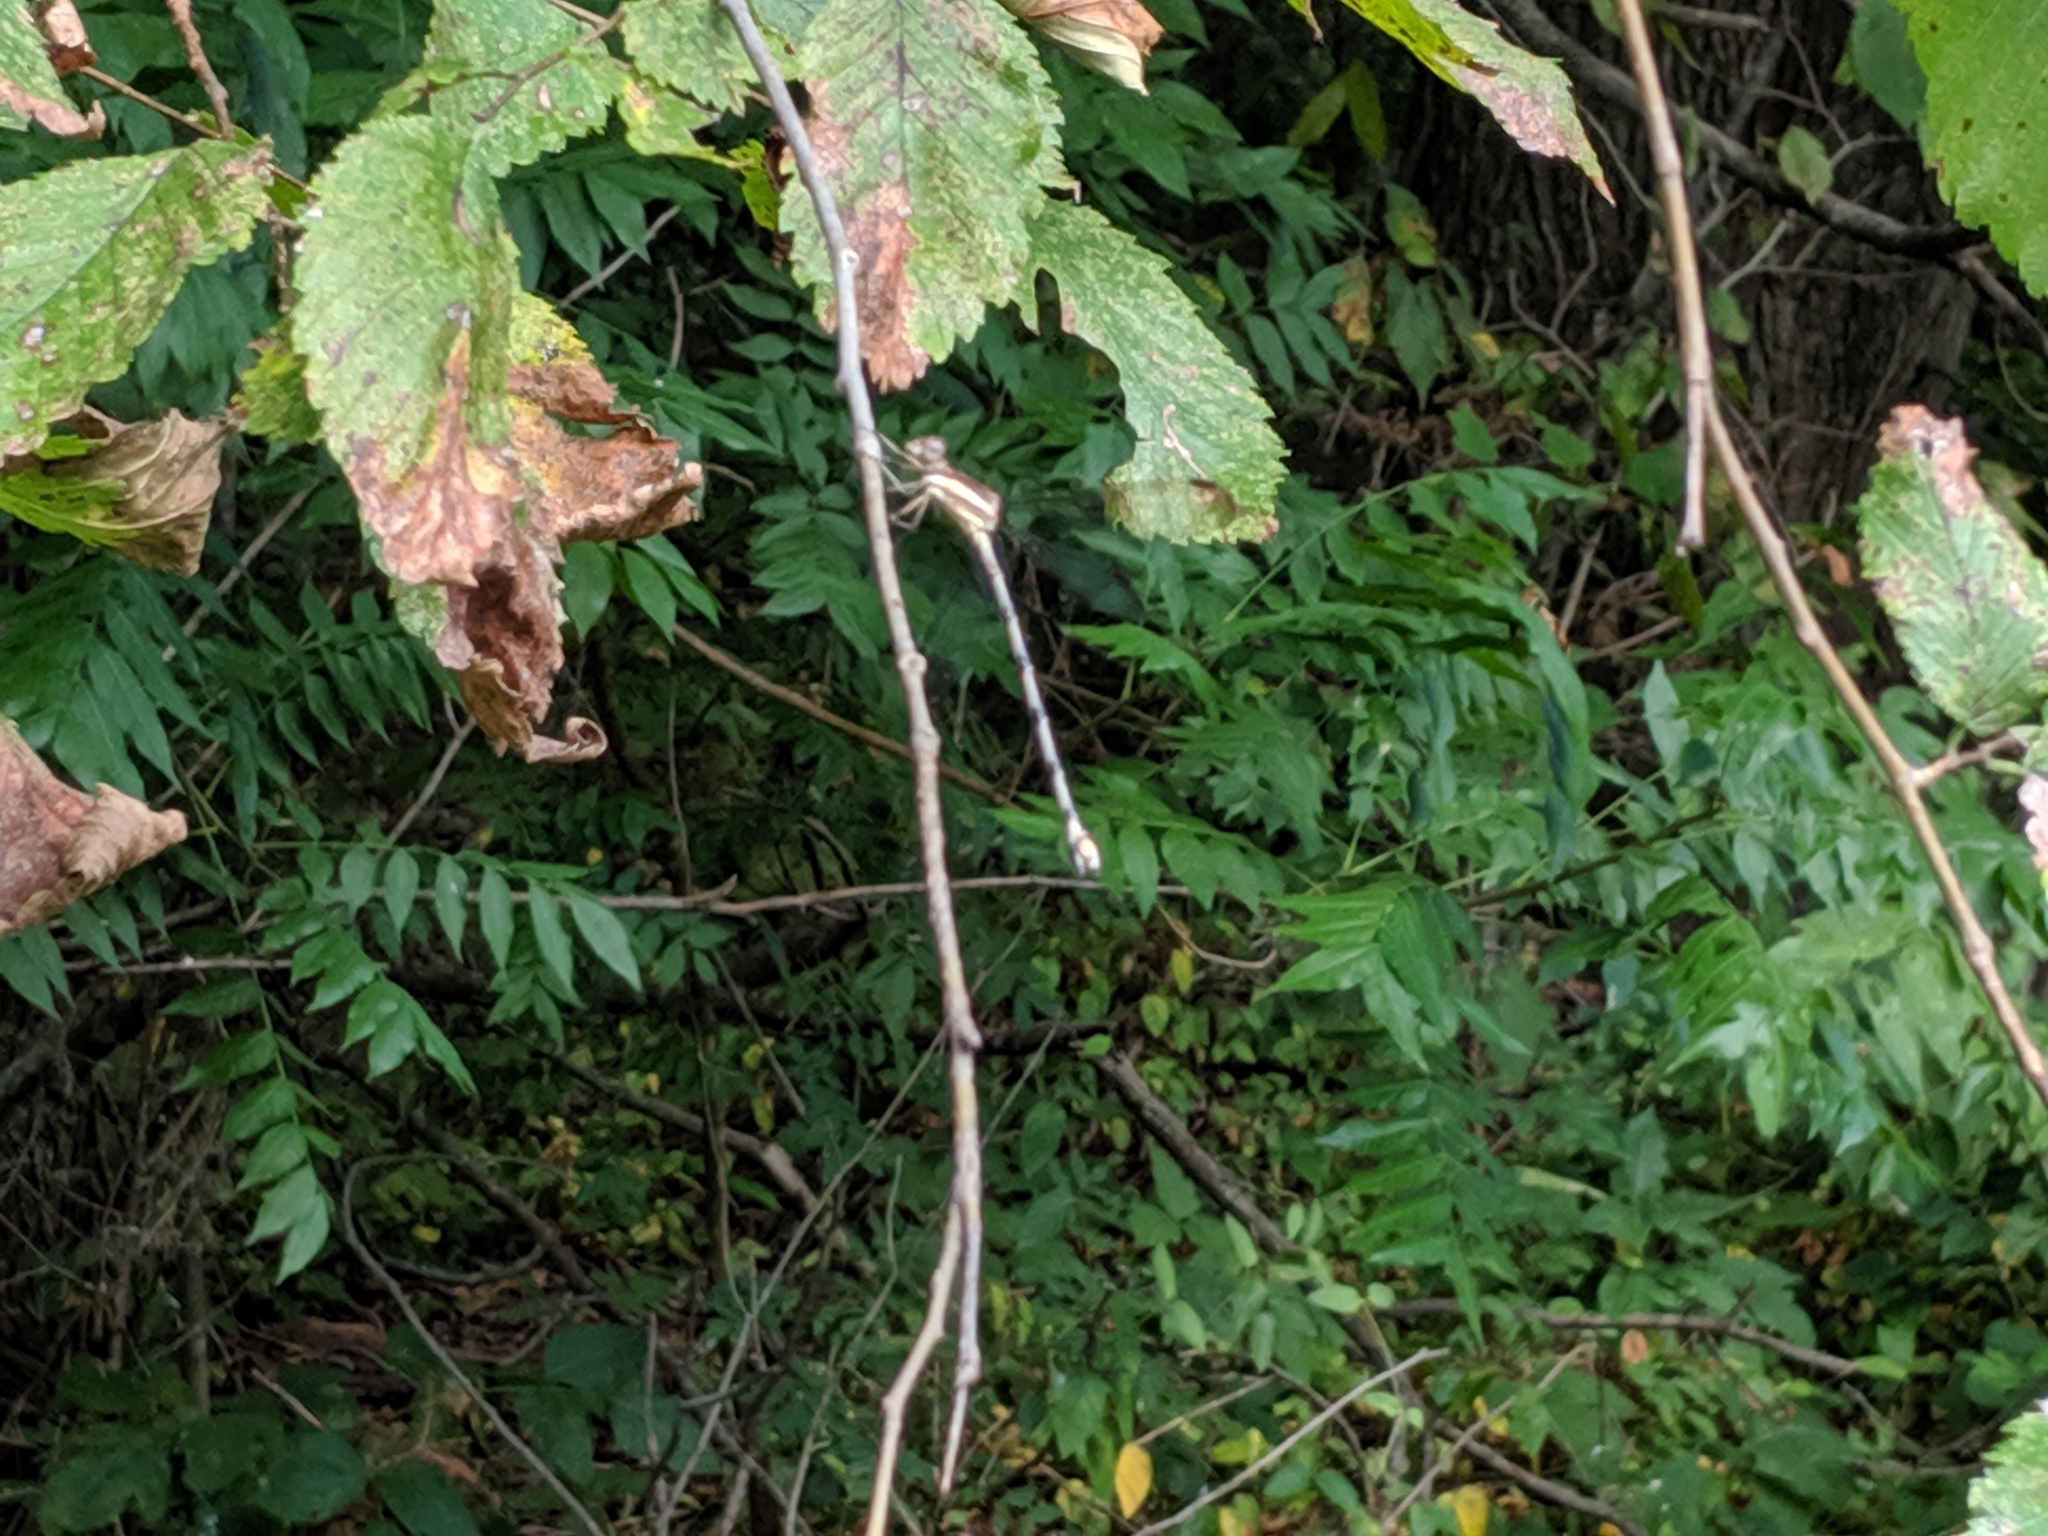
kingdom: Animalia
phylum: Arthropoda
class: Insecta
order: Odonata
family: Lestidae
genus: Archilestes
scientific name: Archilestes grandis
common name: Great spreadwing
